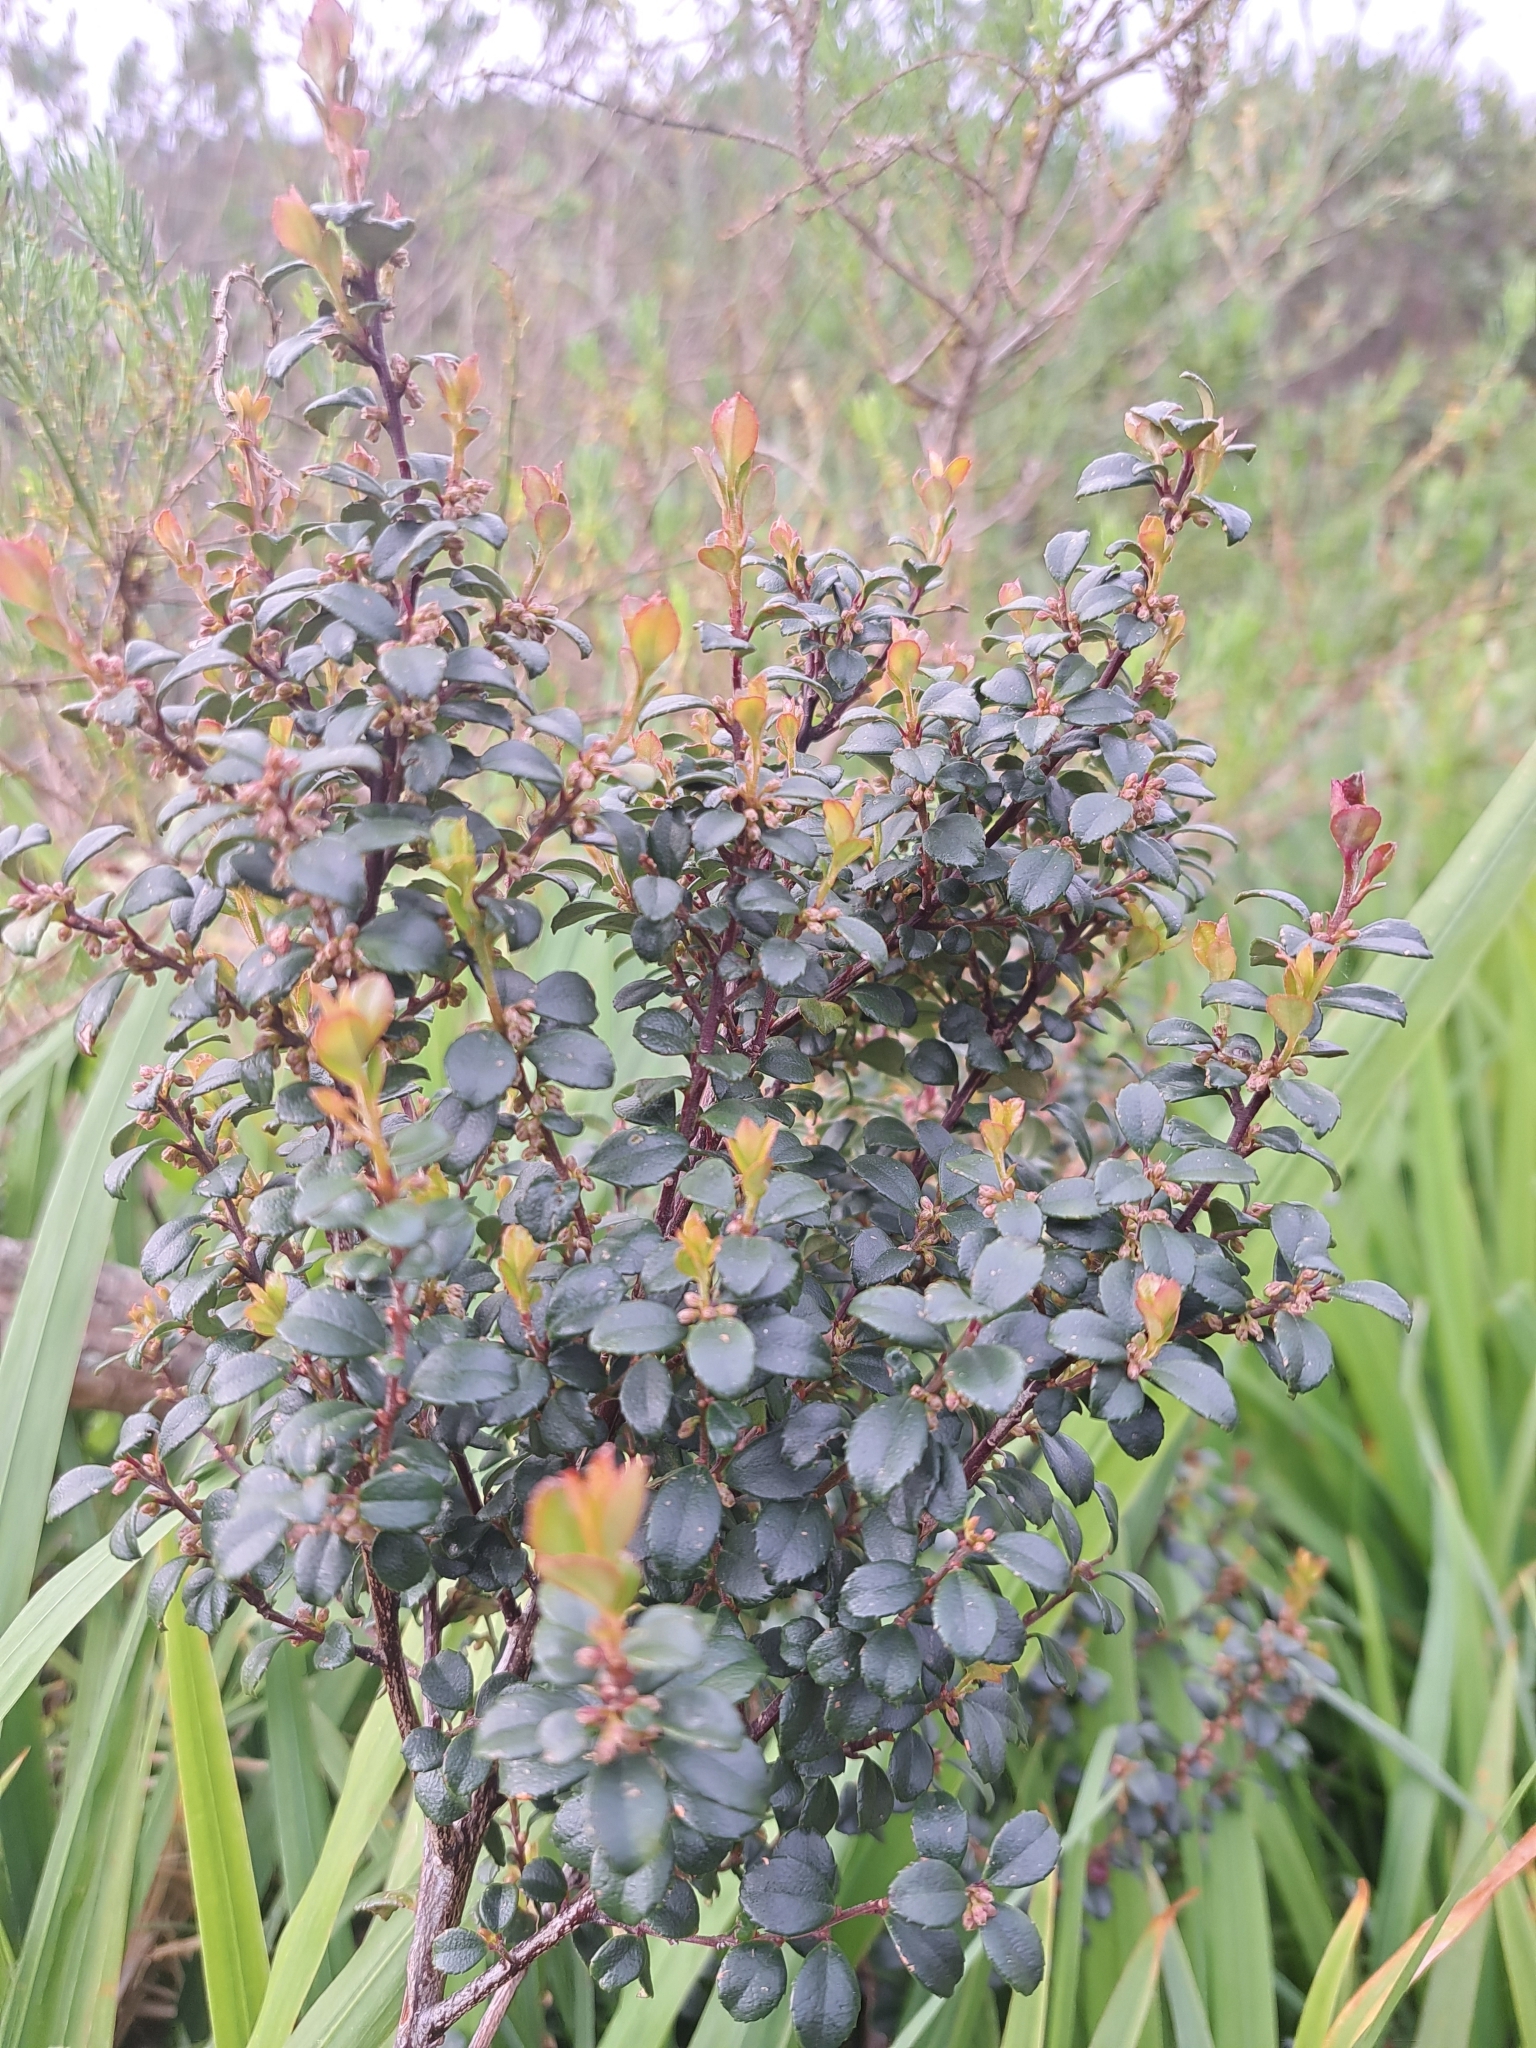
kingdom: Plantae
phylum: Tracheophyta
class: Magnoliopsida
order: Ericales
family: Primulaceae
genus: Myrsine
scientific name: Myrsine africana
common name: African-boxwood
